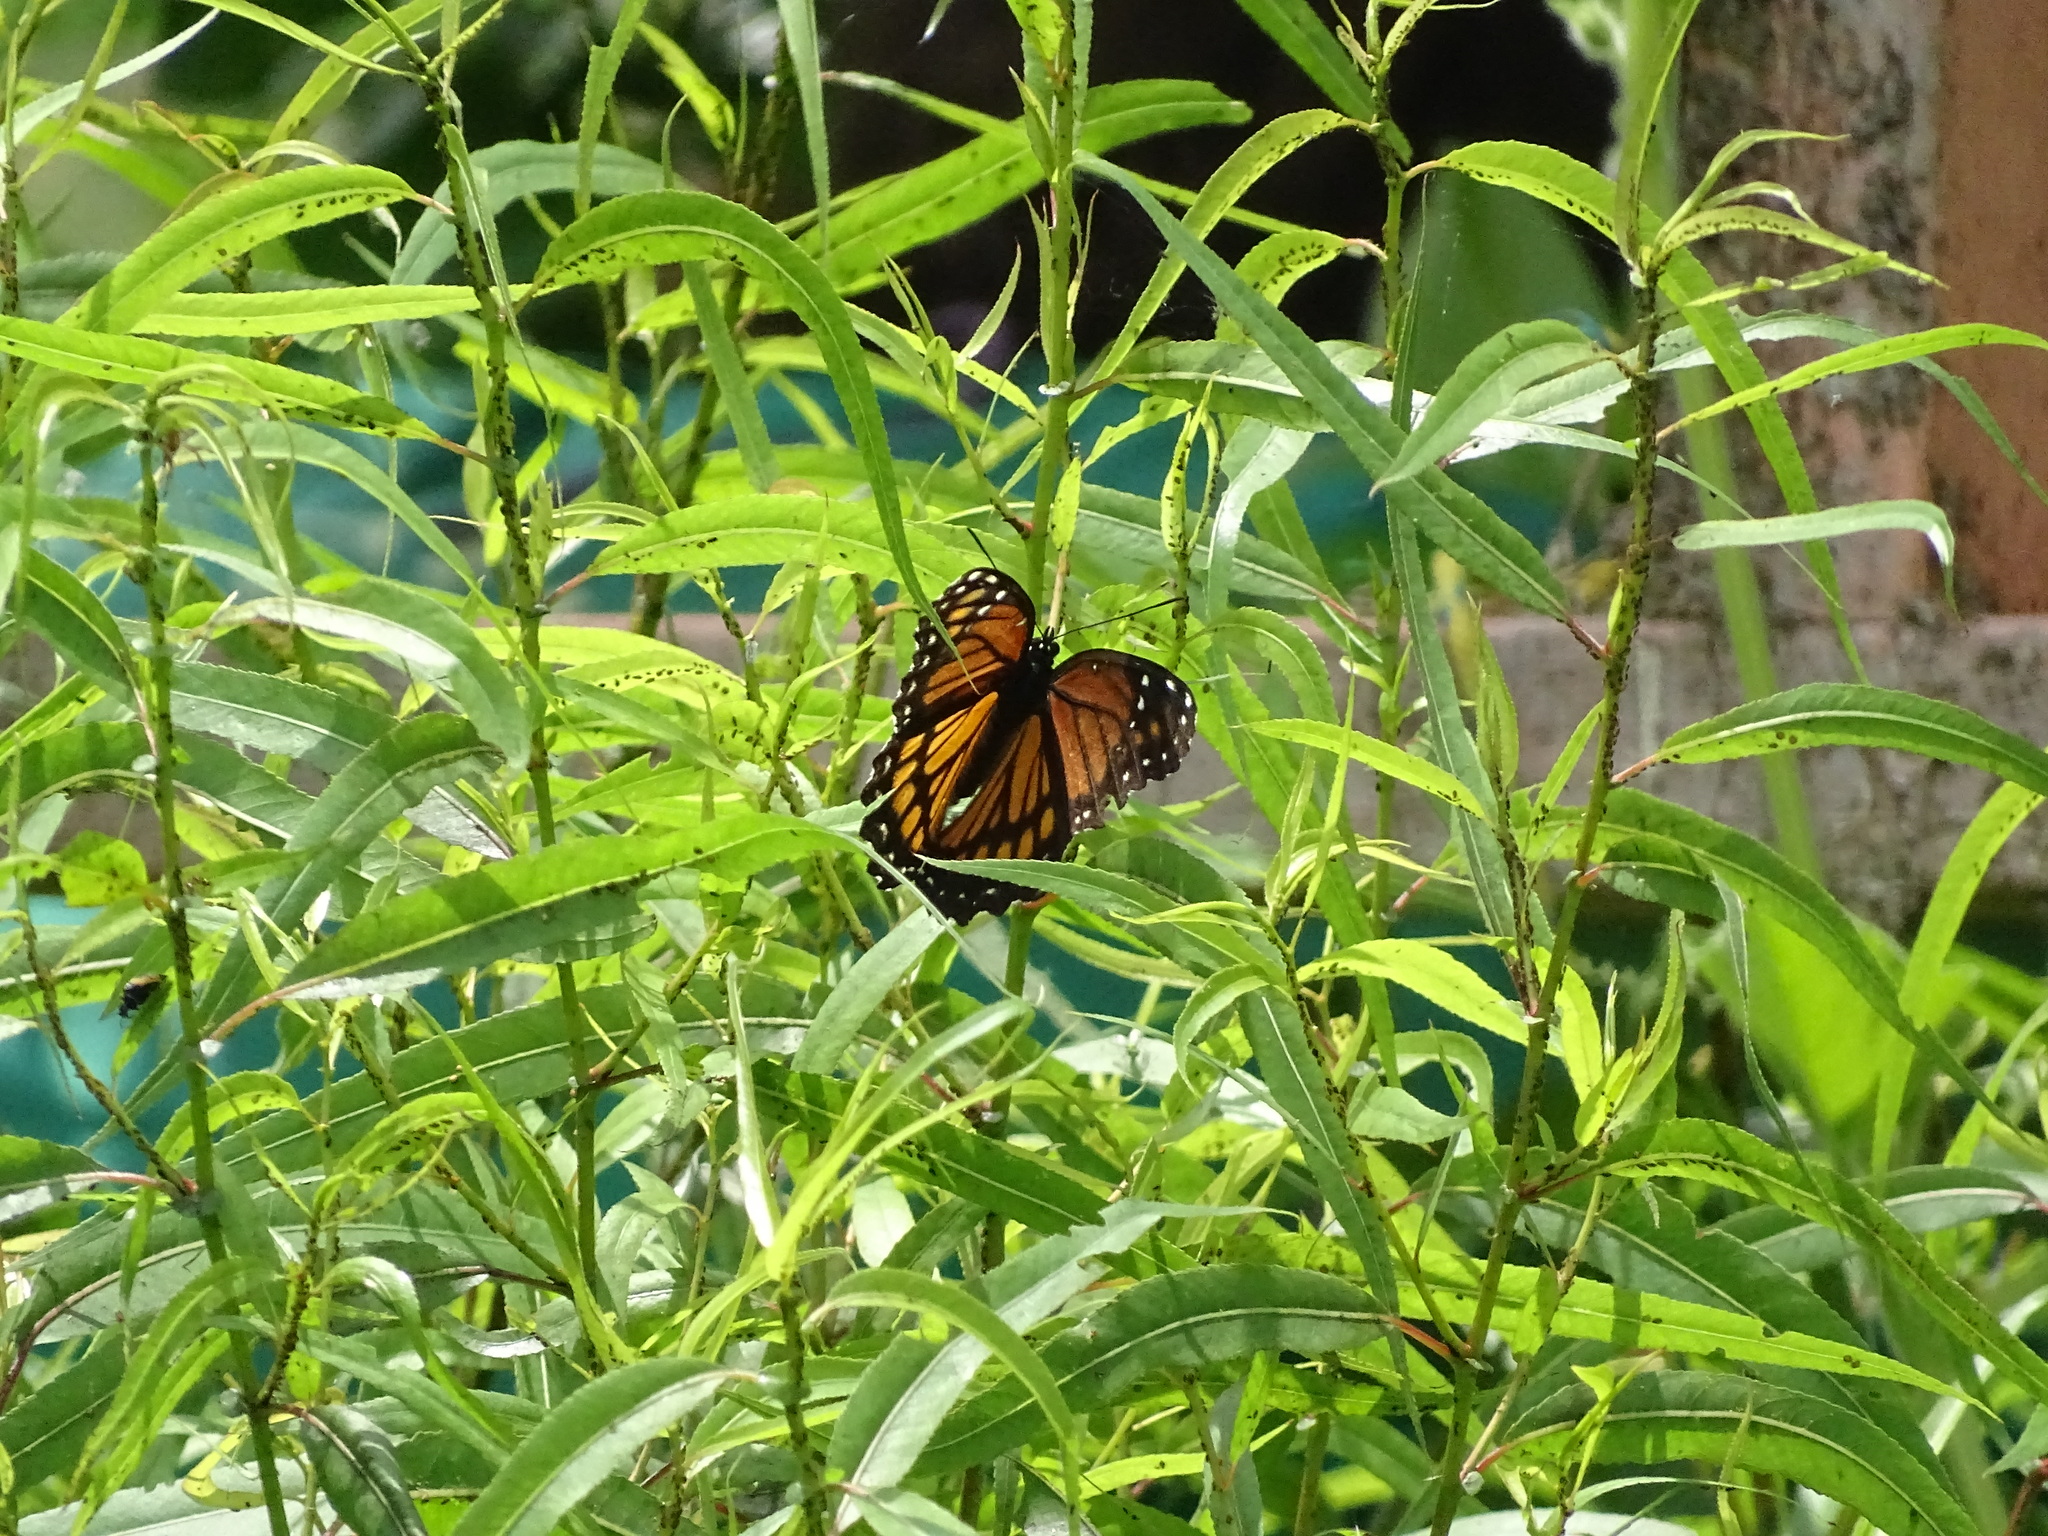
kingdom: Animalia
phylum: Arthropoda
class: Insecta
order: Lepidoptera
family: Nymphalidae
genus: Limenitis
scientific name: Limenitis archippus
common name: Viceroy
